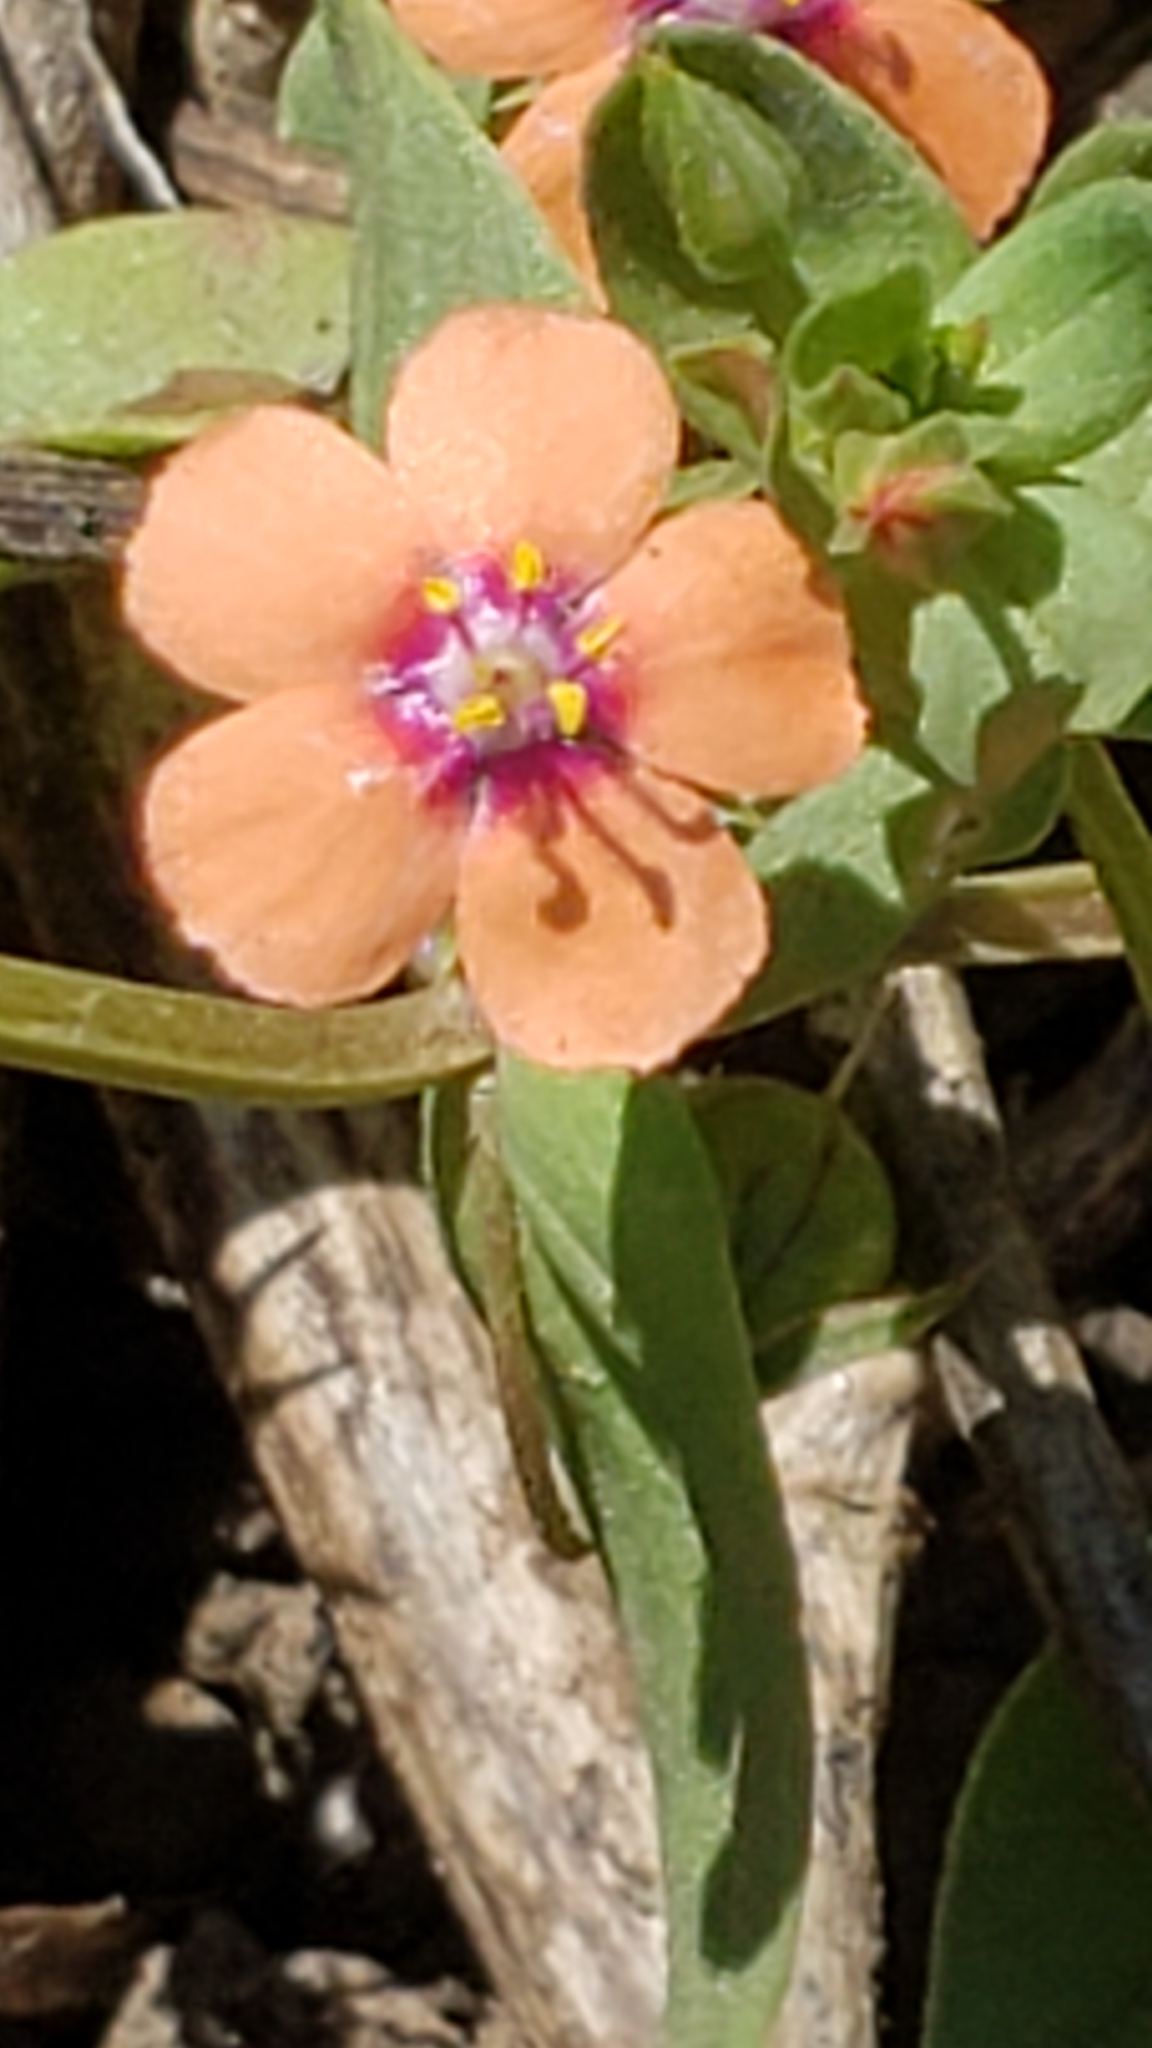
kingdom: Plantae
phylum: Tracheophyta
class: Magnoliopsida
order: Ericales
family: Primulaceae
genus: Lysimachia
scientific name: Lysimachia arvensis
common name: Scarlet pimpernel
